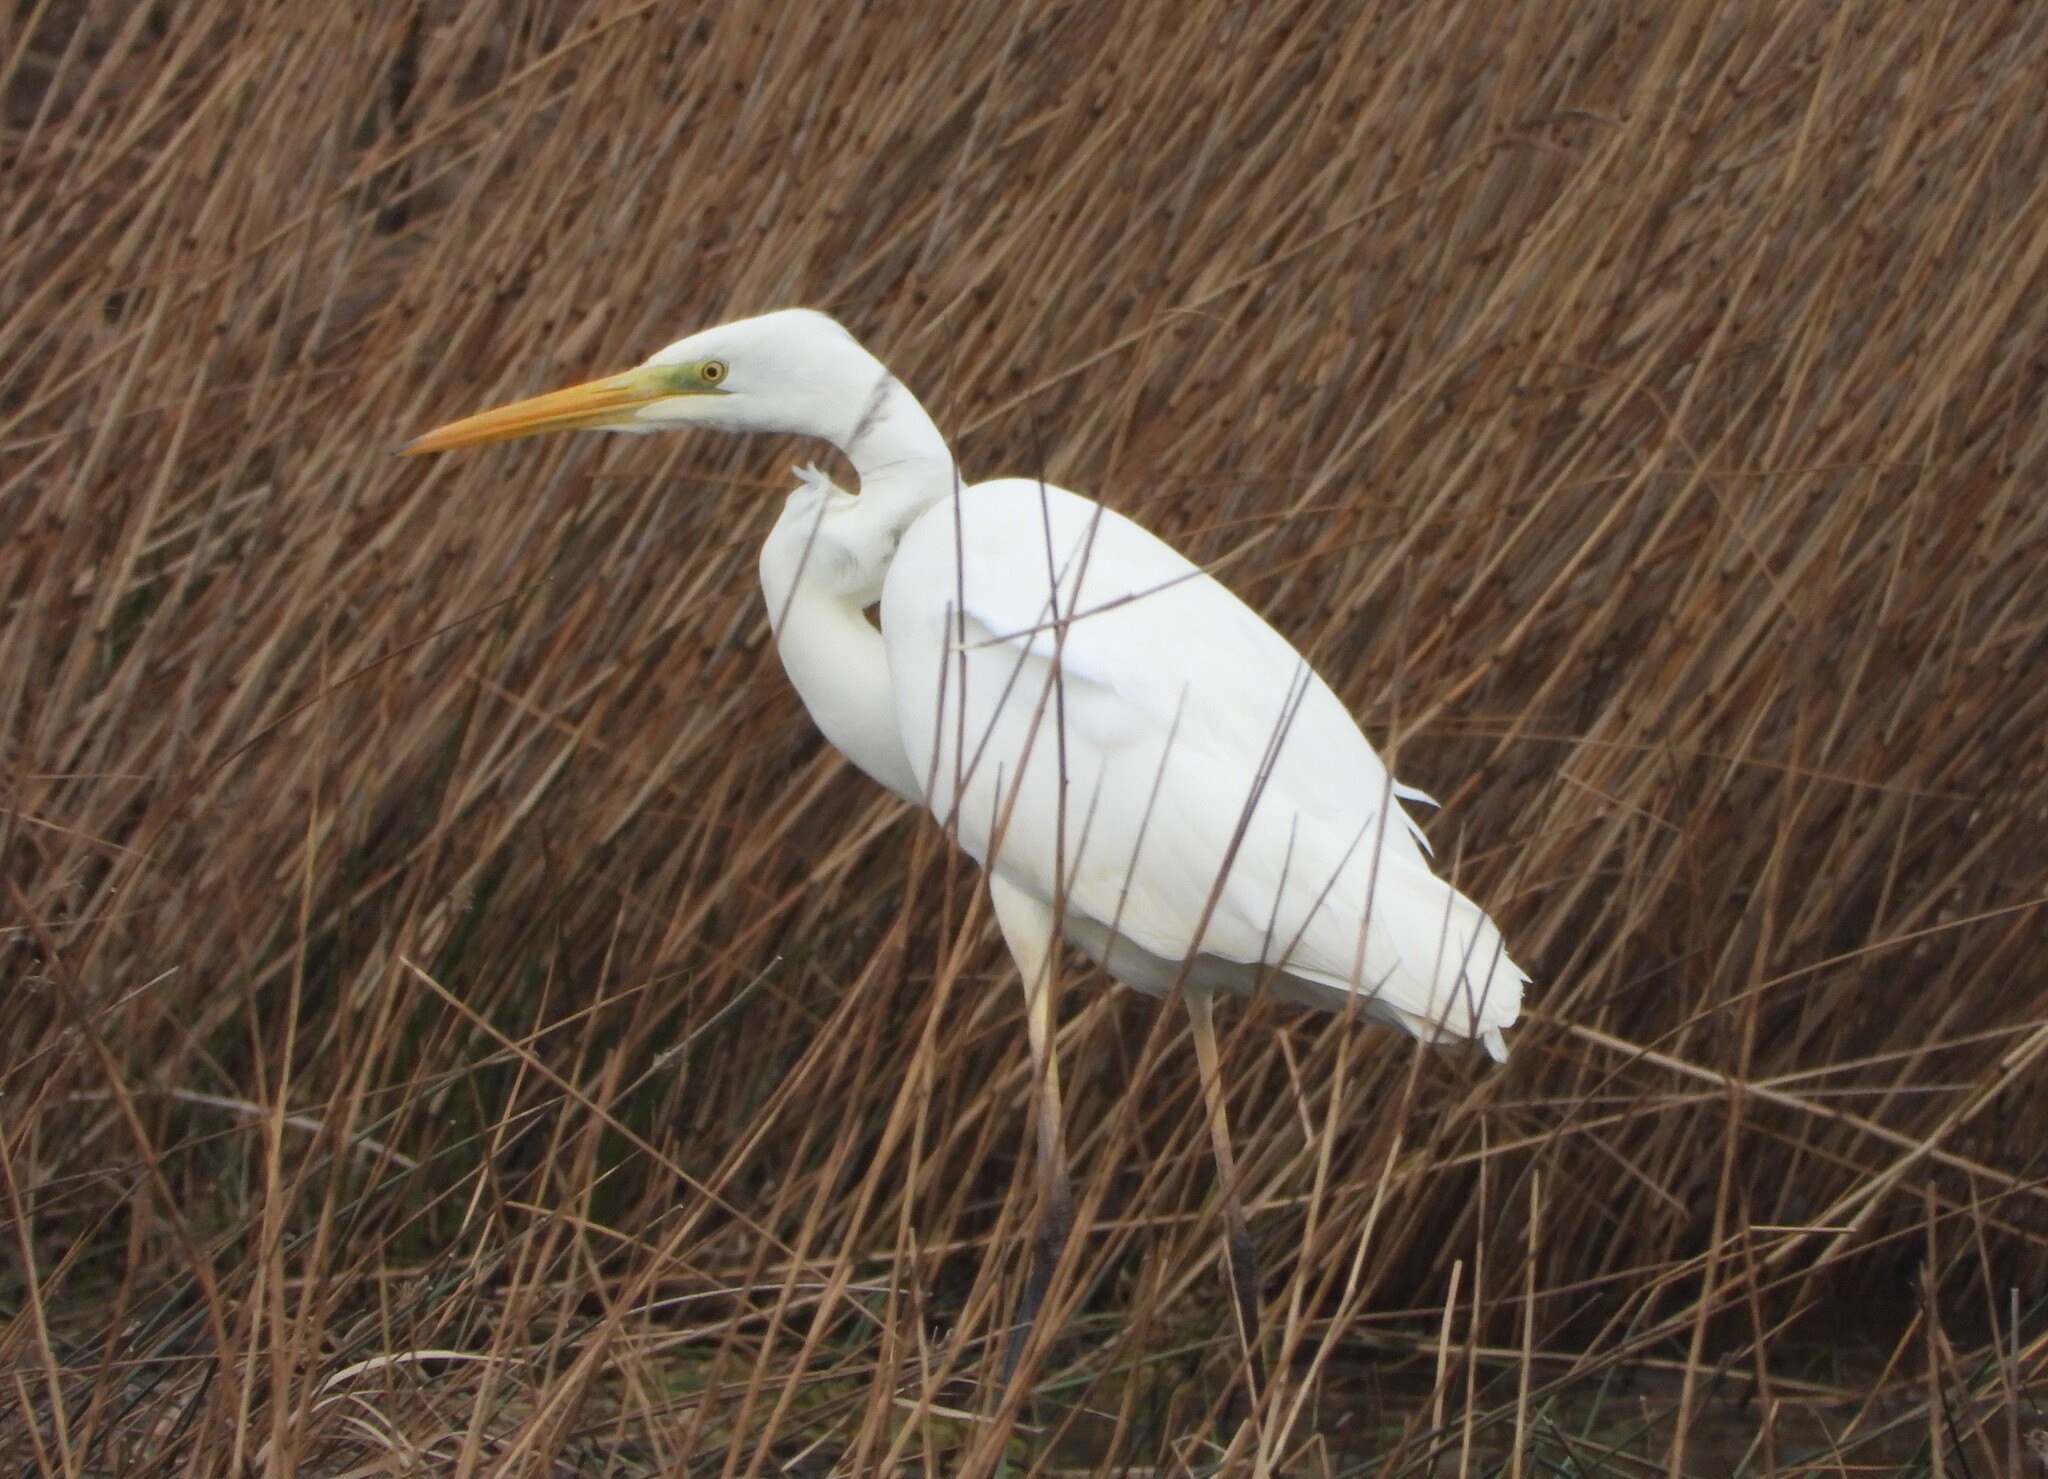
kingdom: Animalia
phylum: Chordata
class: Aves
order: Pelecaniformes
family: Ardeidae
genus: Ardea
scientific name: Ardea alba
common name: Great egret
